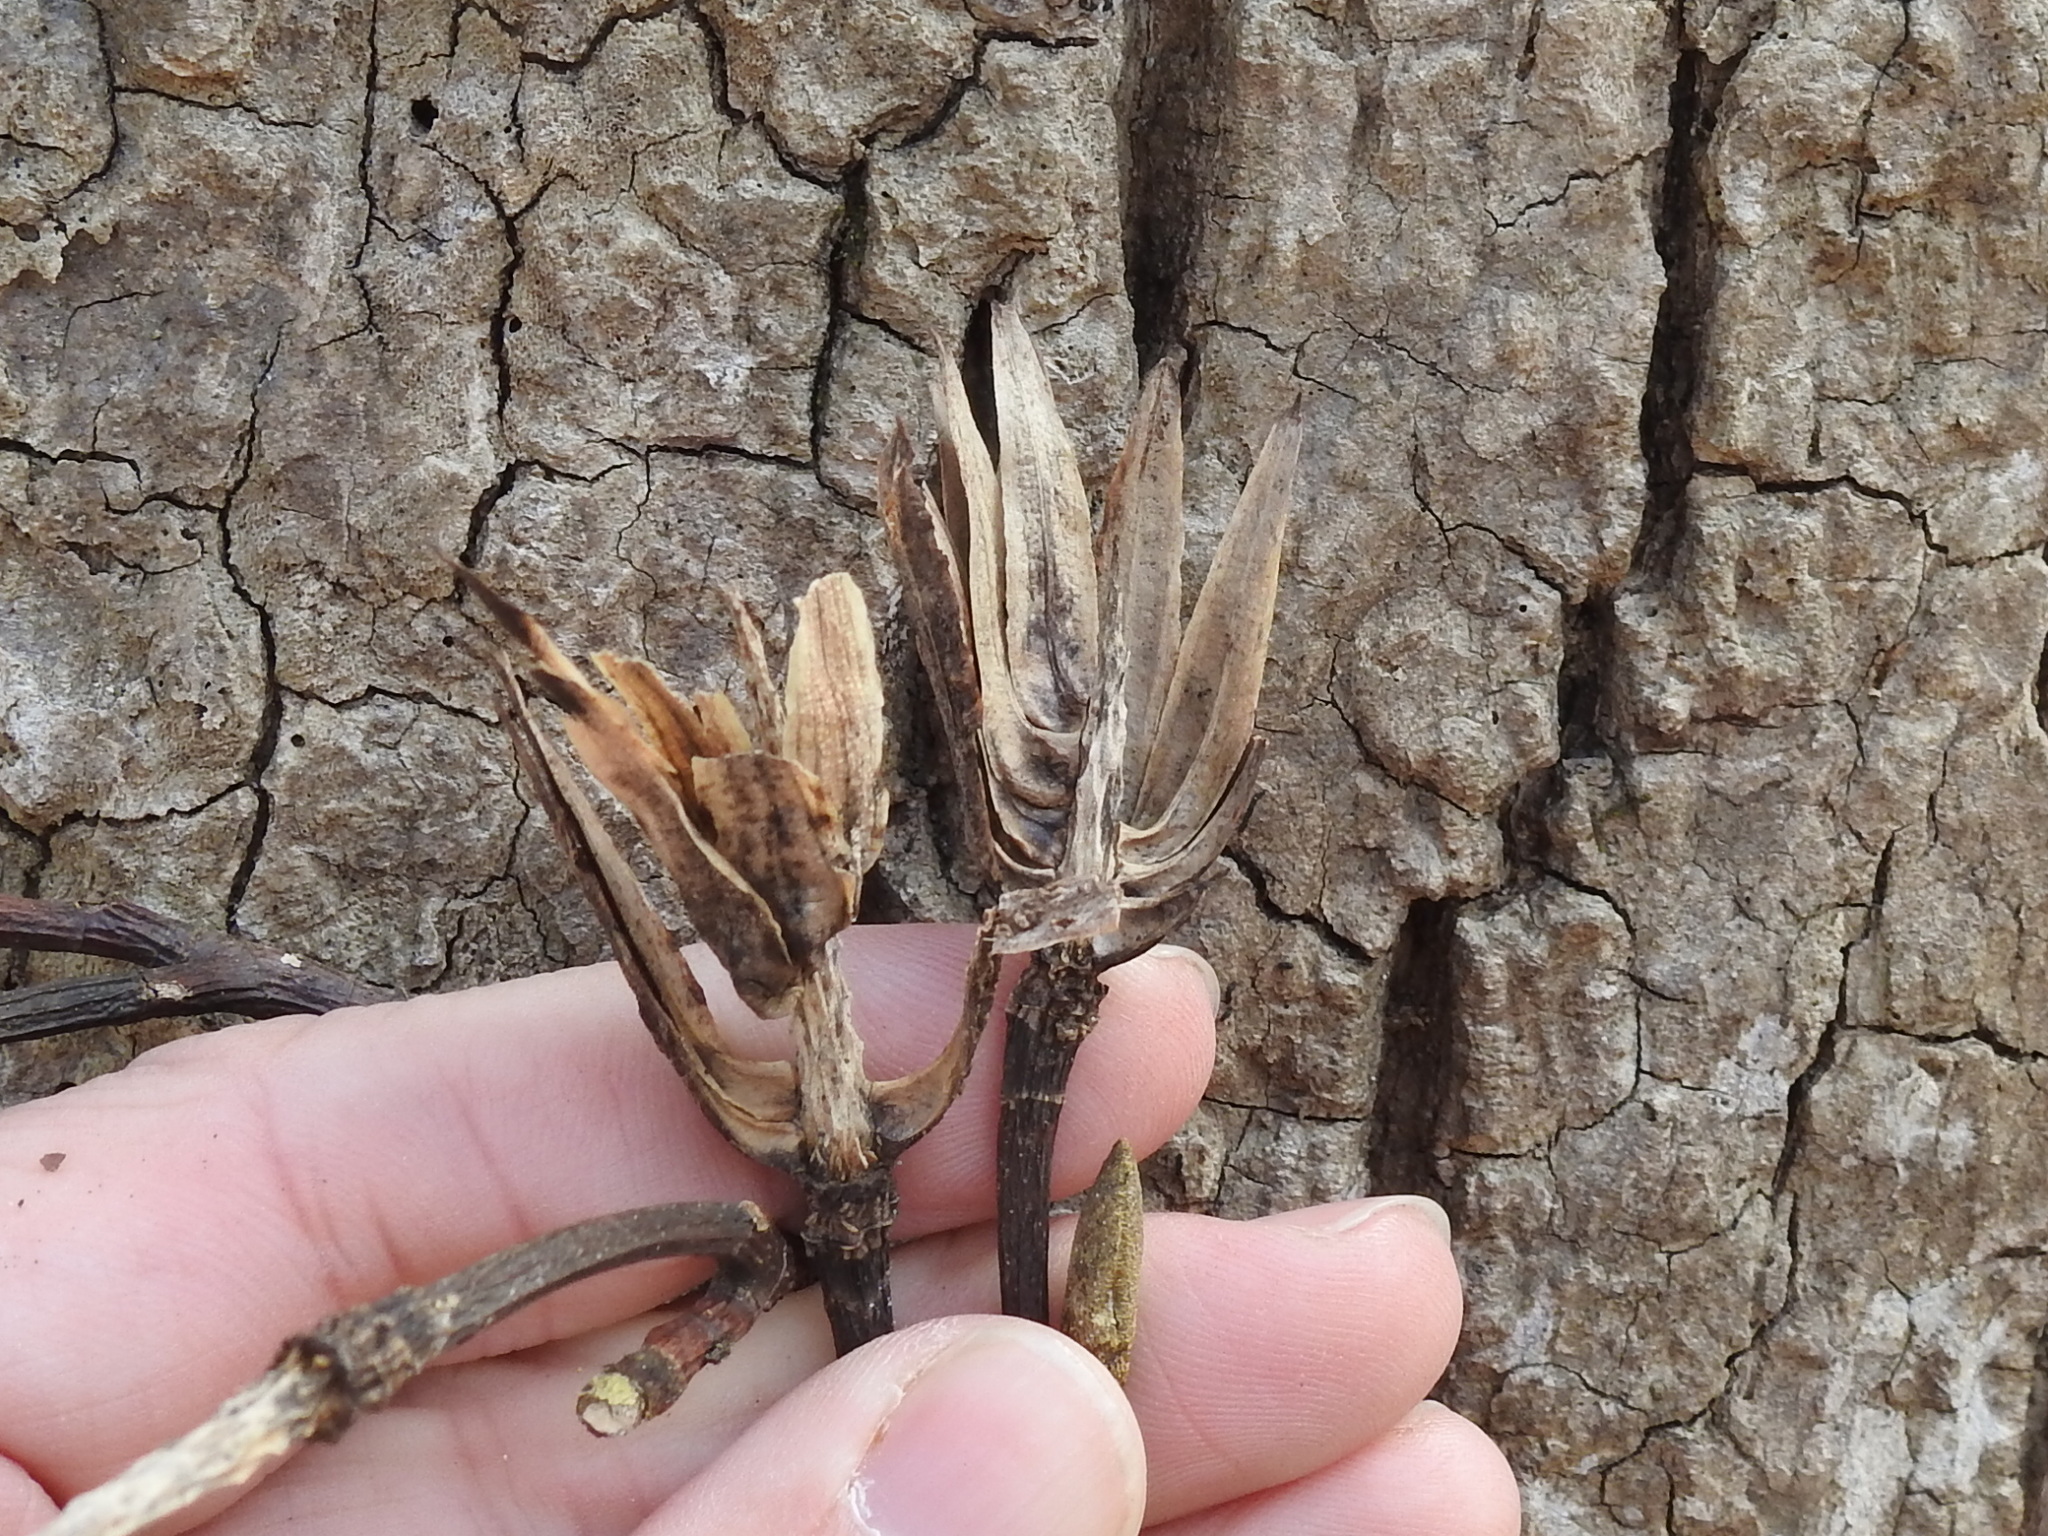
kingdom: Plantae
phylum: Tracheophyta
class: Magnoliopsida
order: Magnoliales
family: Magnoliaceae
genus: Liriodendron
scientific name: Liriodendron tulipifera
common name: Tulip tree
